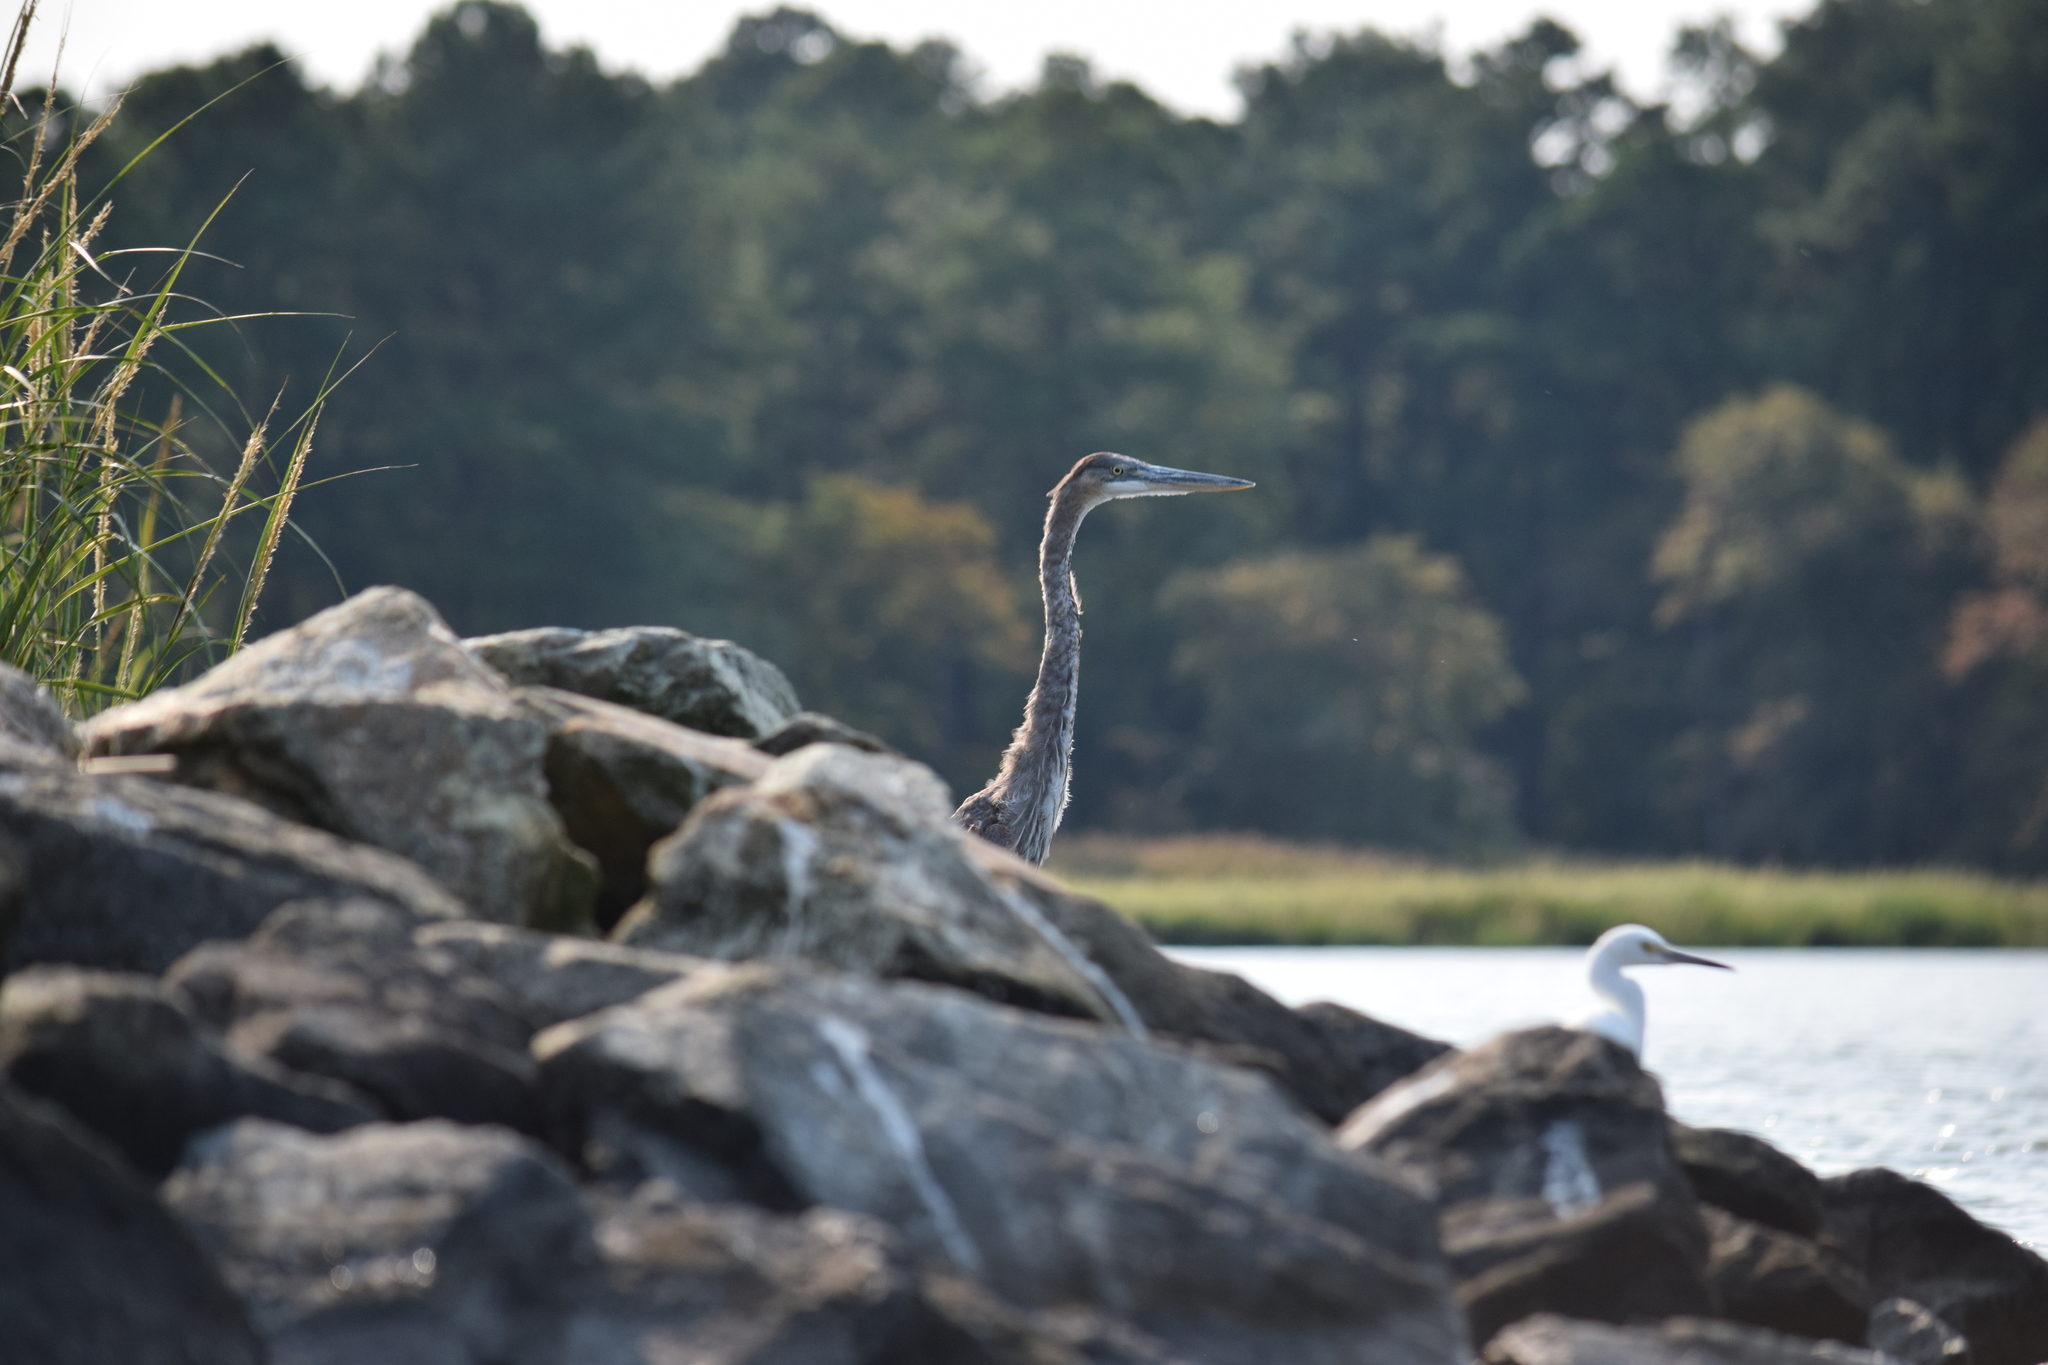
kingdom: Animalia
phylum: Chordata
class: Aves
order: Pelecaniformes
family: Ardeidae
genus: Ardea
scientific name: Ardea herodias
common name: Great blue heron
